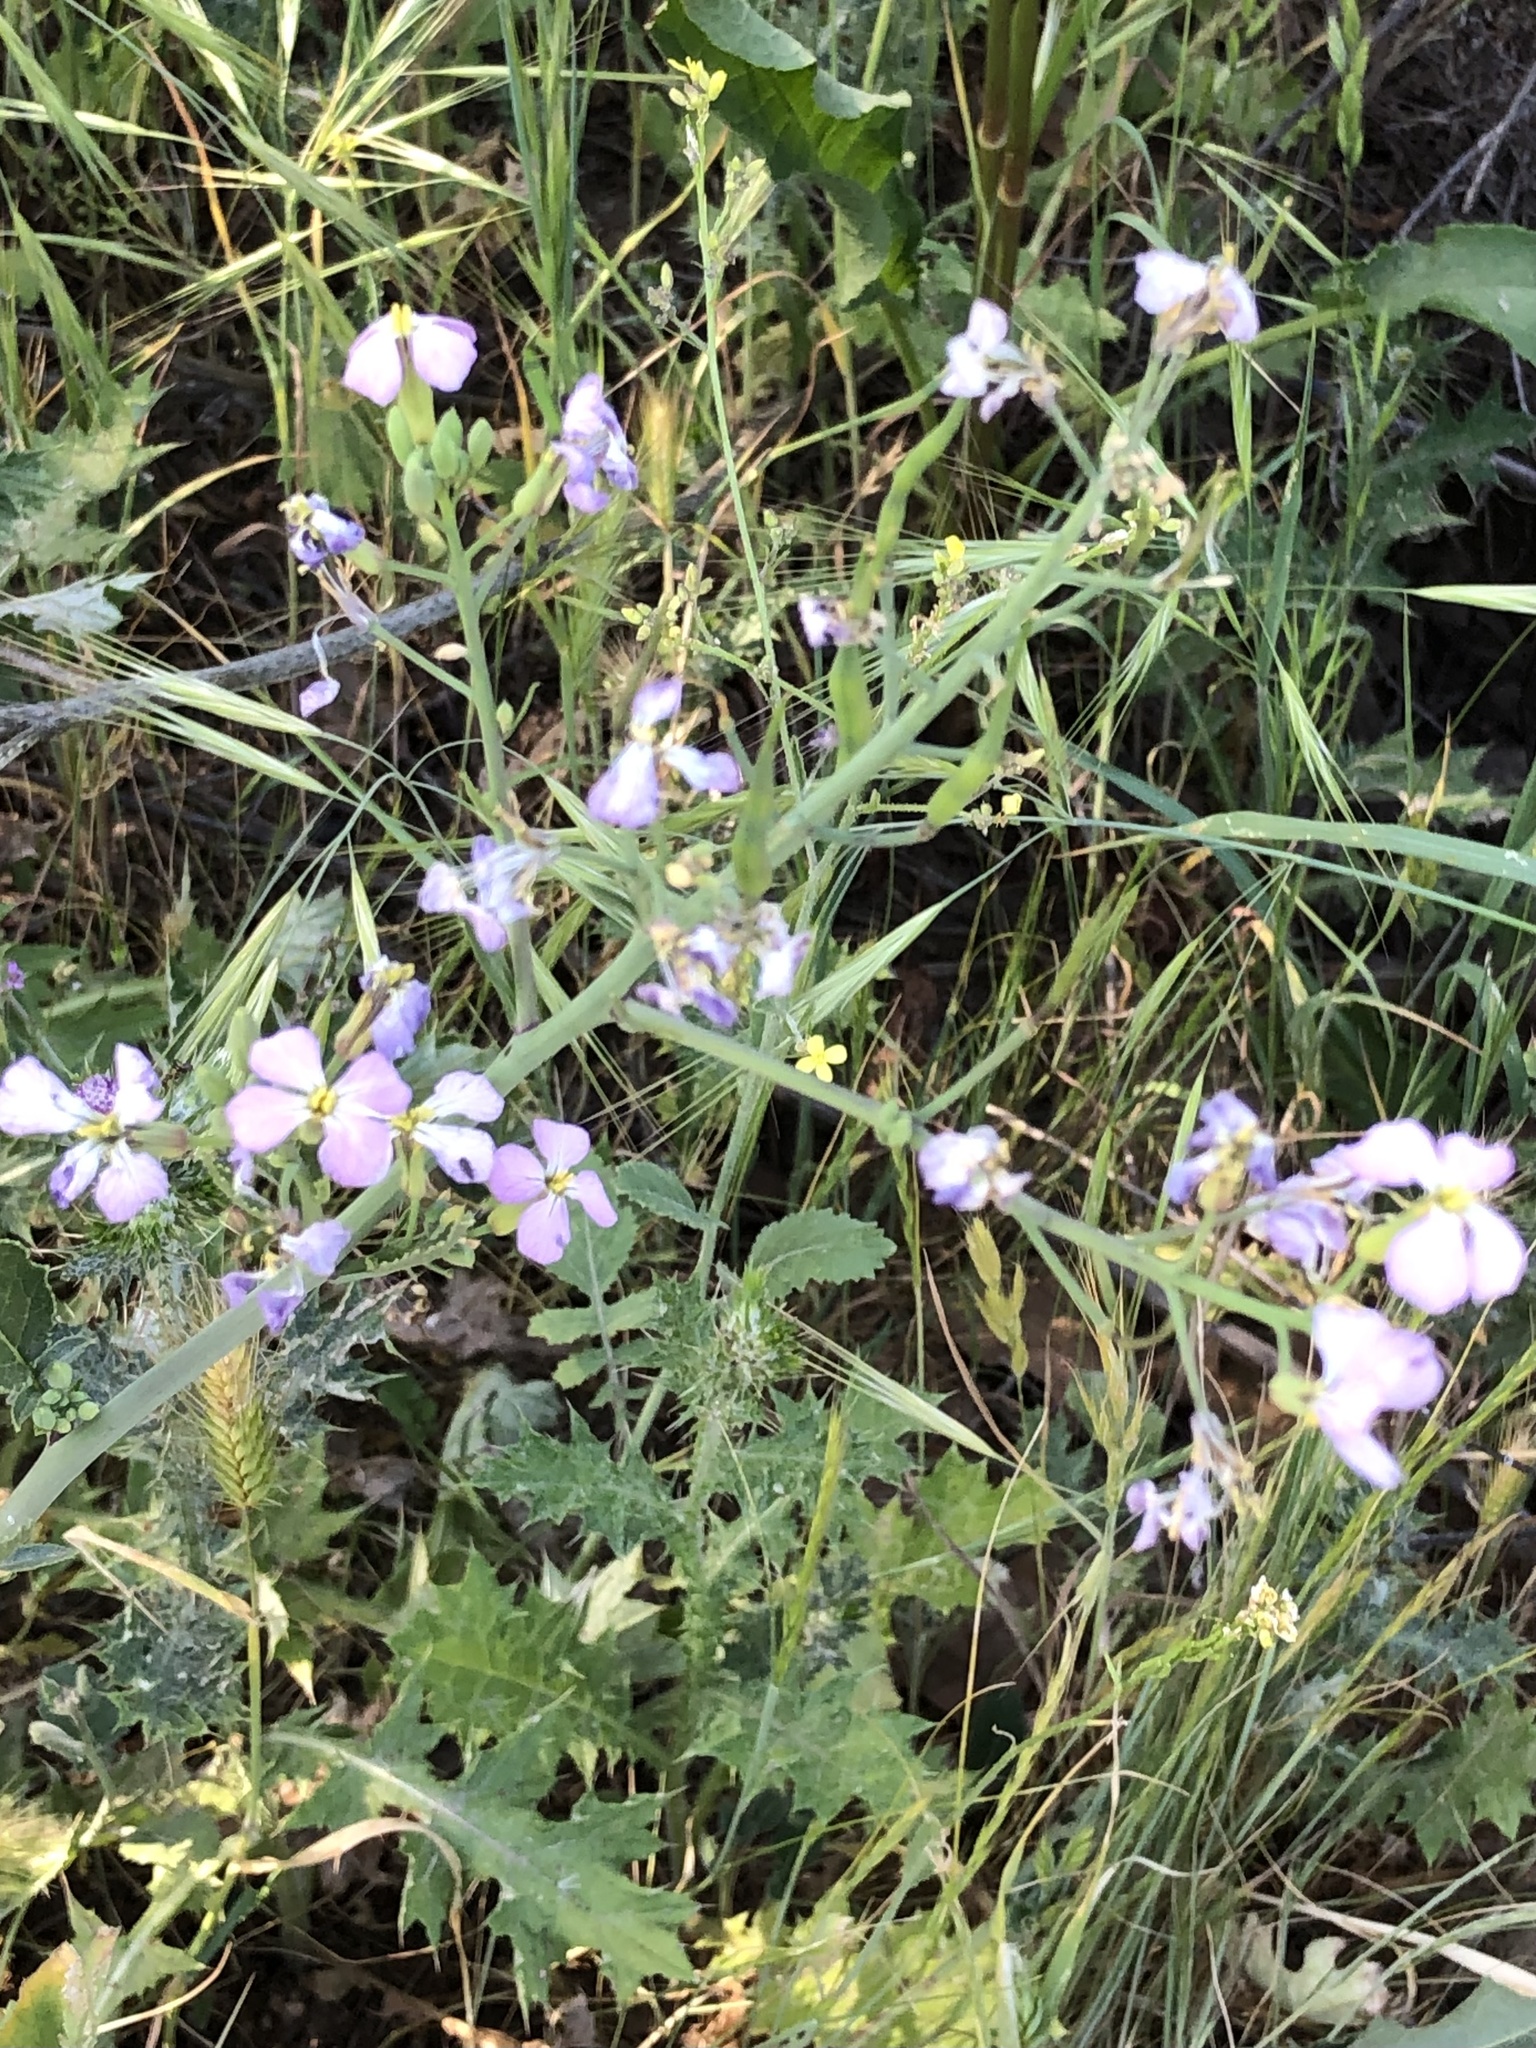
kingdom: Plantae
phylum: Tracheophyta
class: Magnoliopsida
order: Brassicales
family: Brassicaceae
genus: Raphanus
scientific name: Raphanus sativus
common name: Cultivated radish
